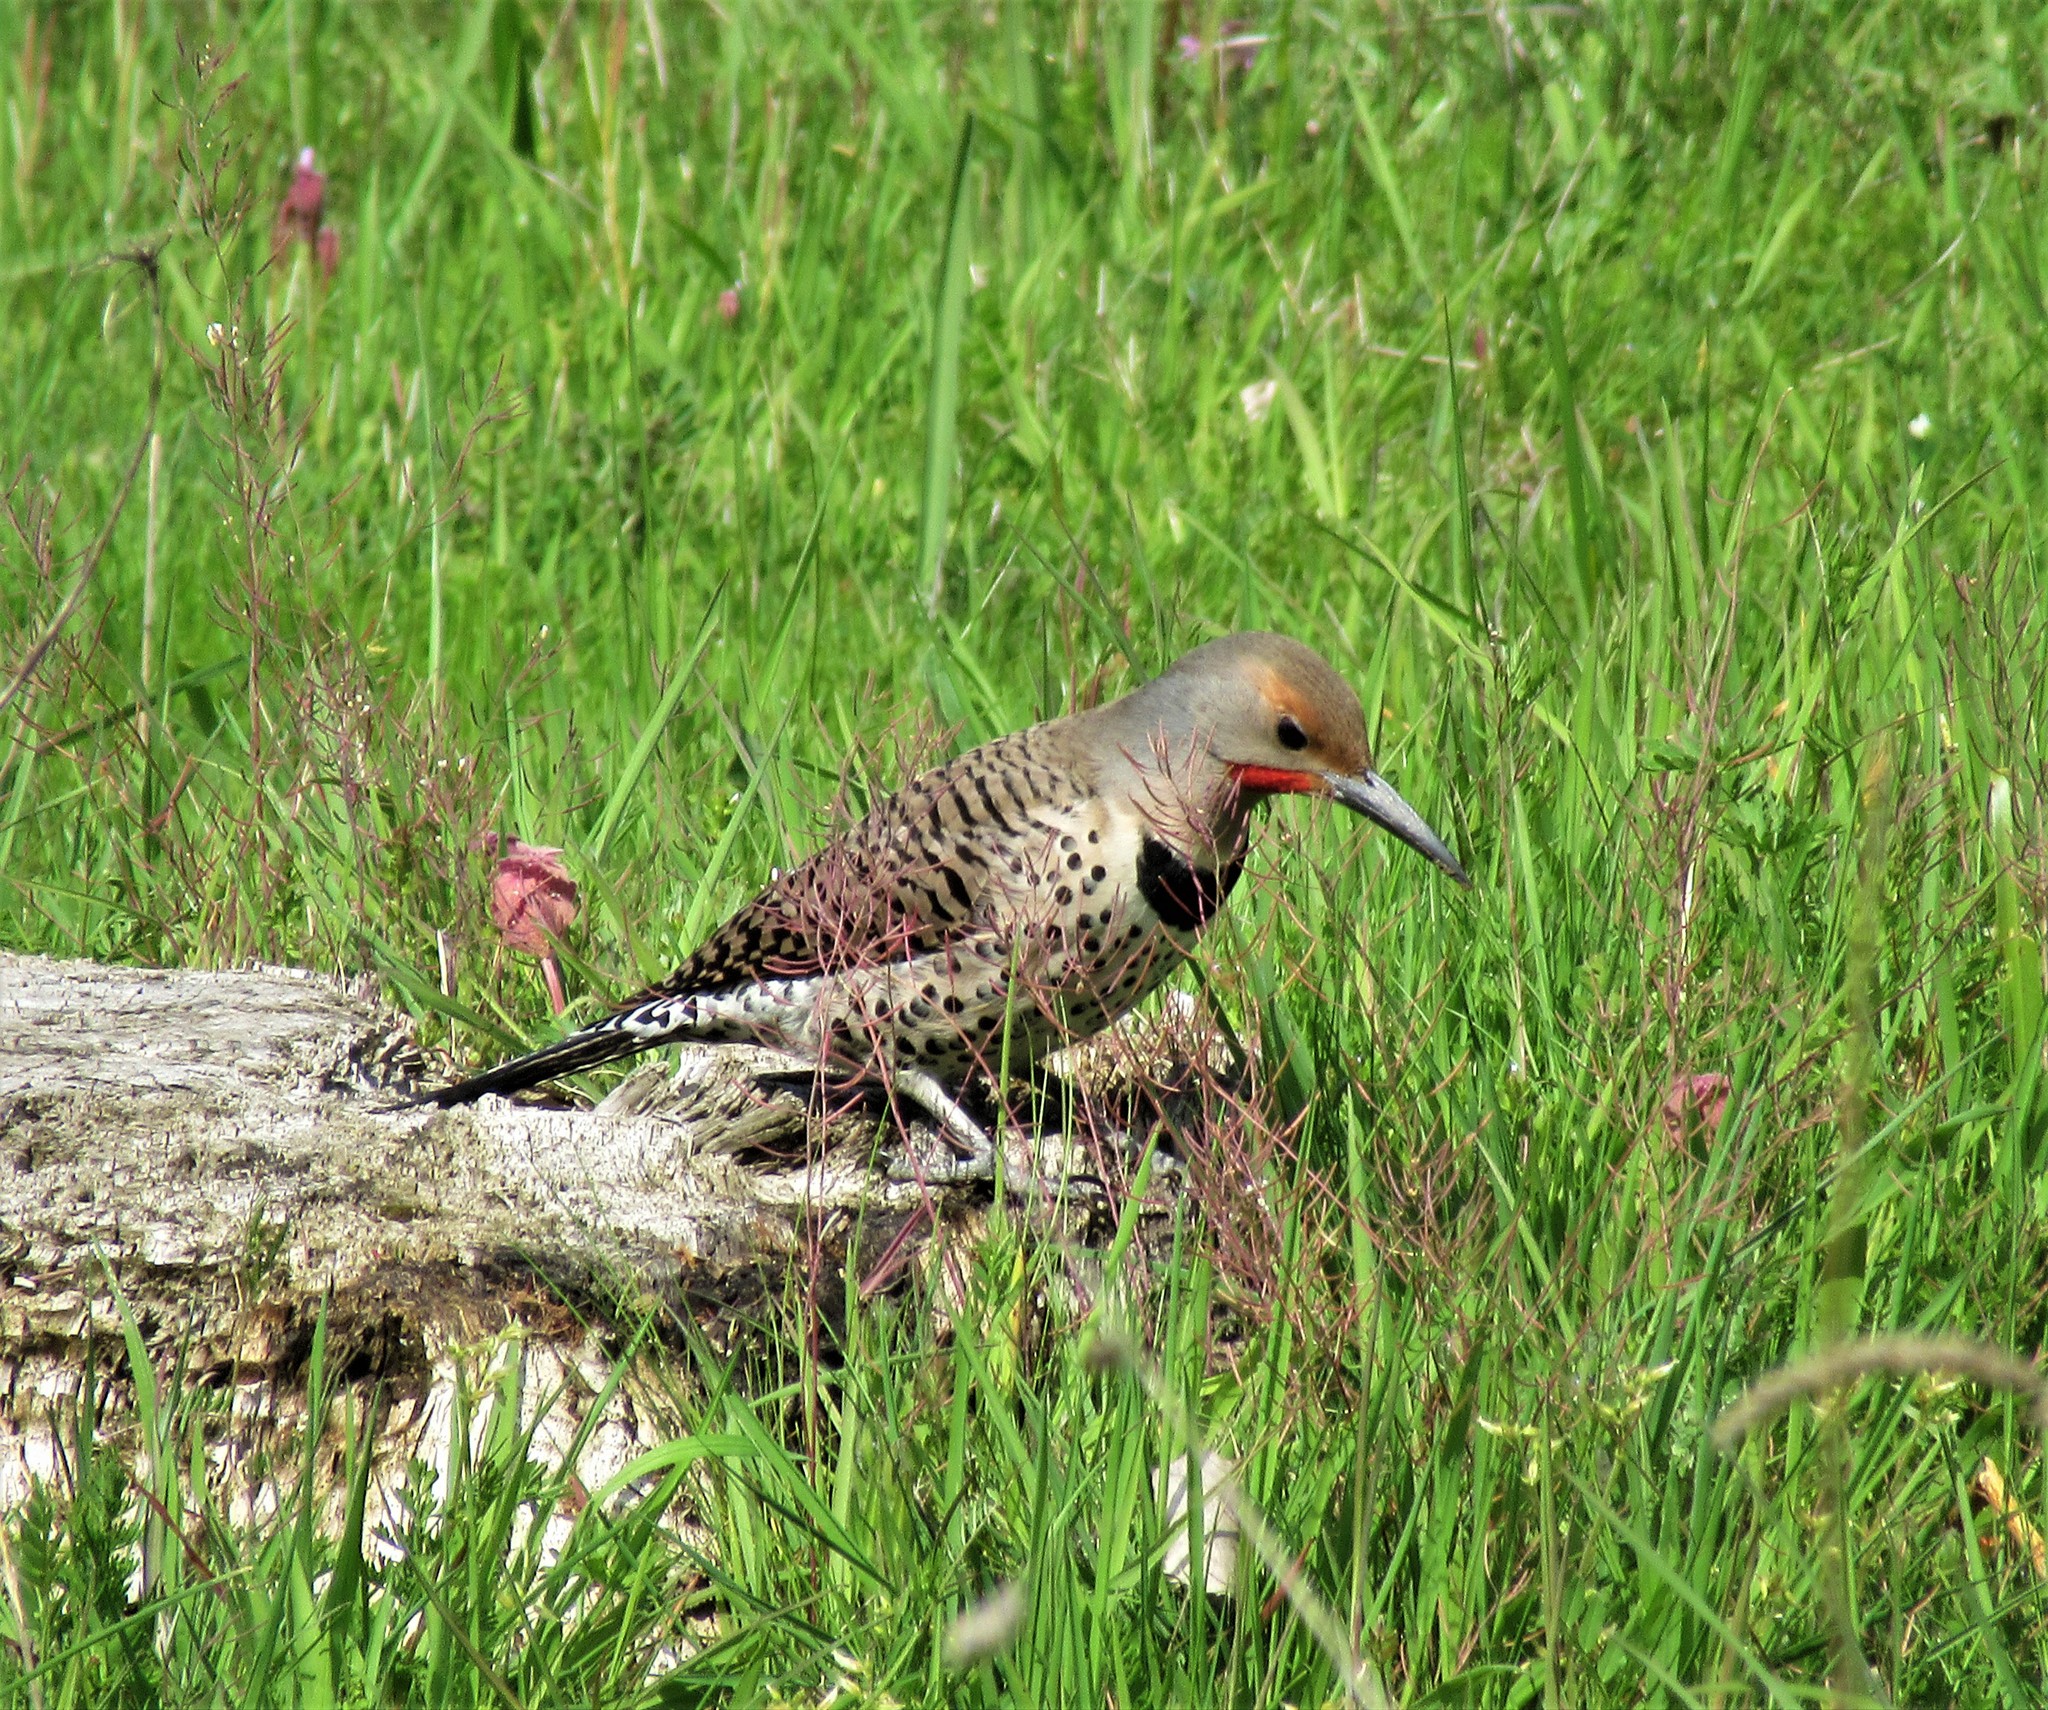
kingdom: Animalia
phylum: Chordata
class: Aves
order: Piciformes
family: Picidae
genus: Colaptes
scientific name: Colaptes auratus
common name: Northern flicker
